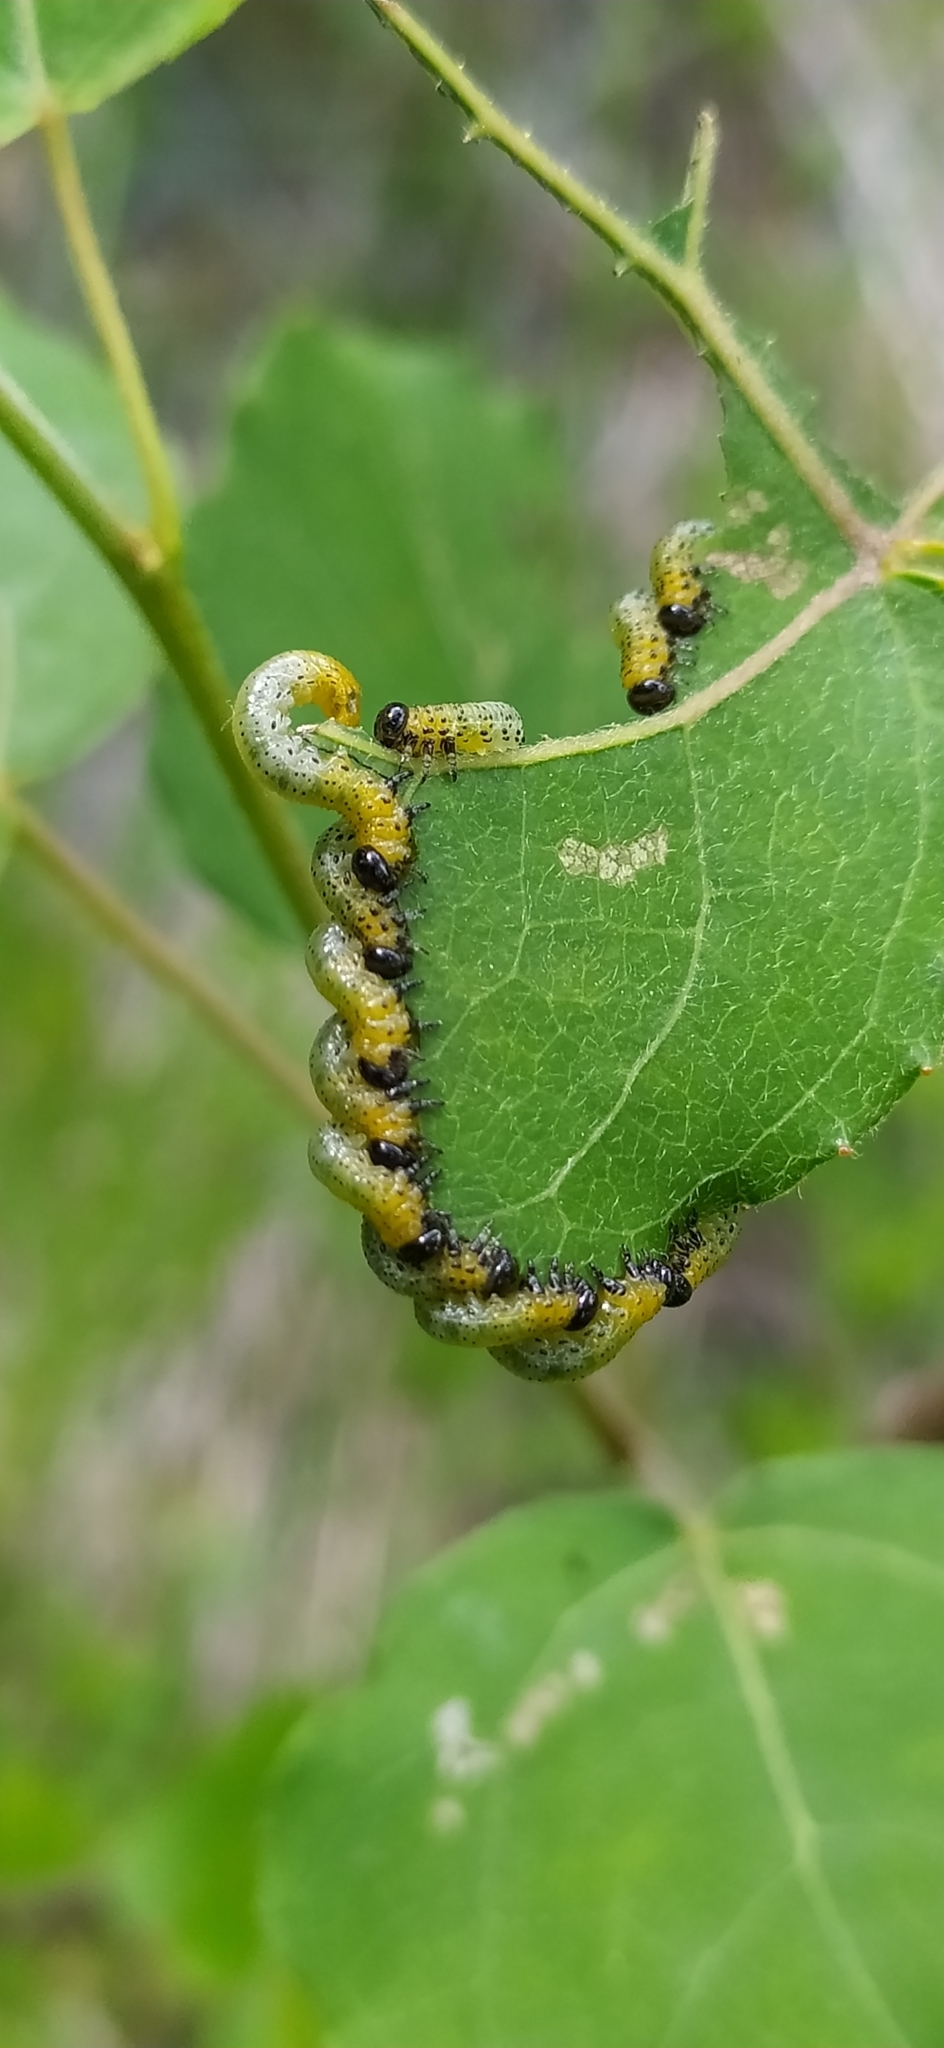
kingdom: Animalia
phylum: Arthropoda
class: Insecta
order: Hymenoptera
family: Tenthredinidae
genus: Pristiphora
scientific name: Pristiphora conjugata
